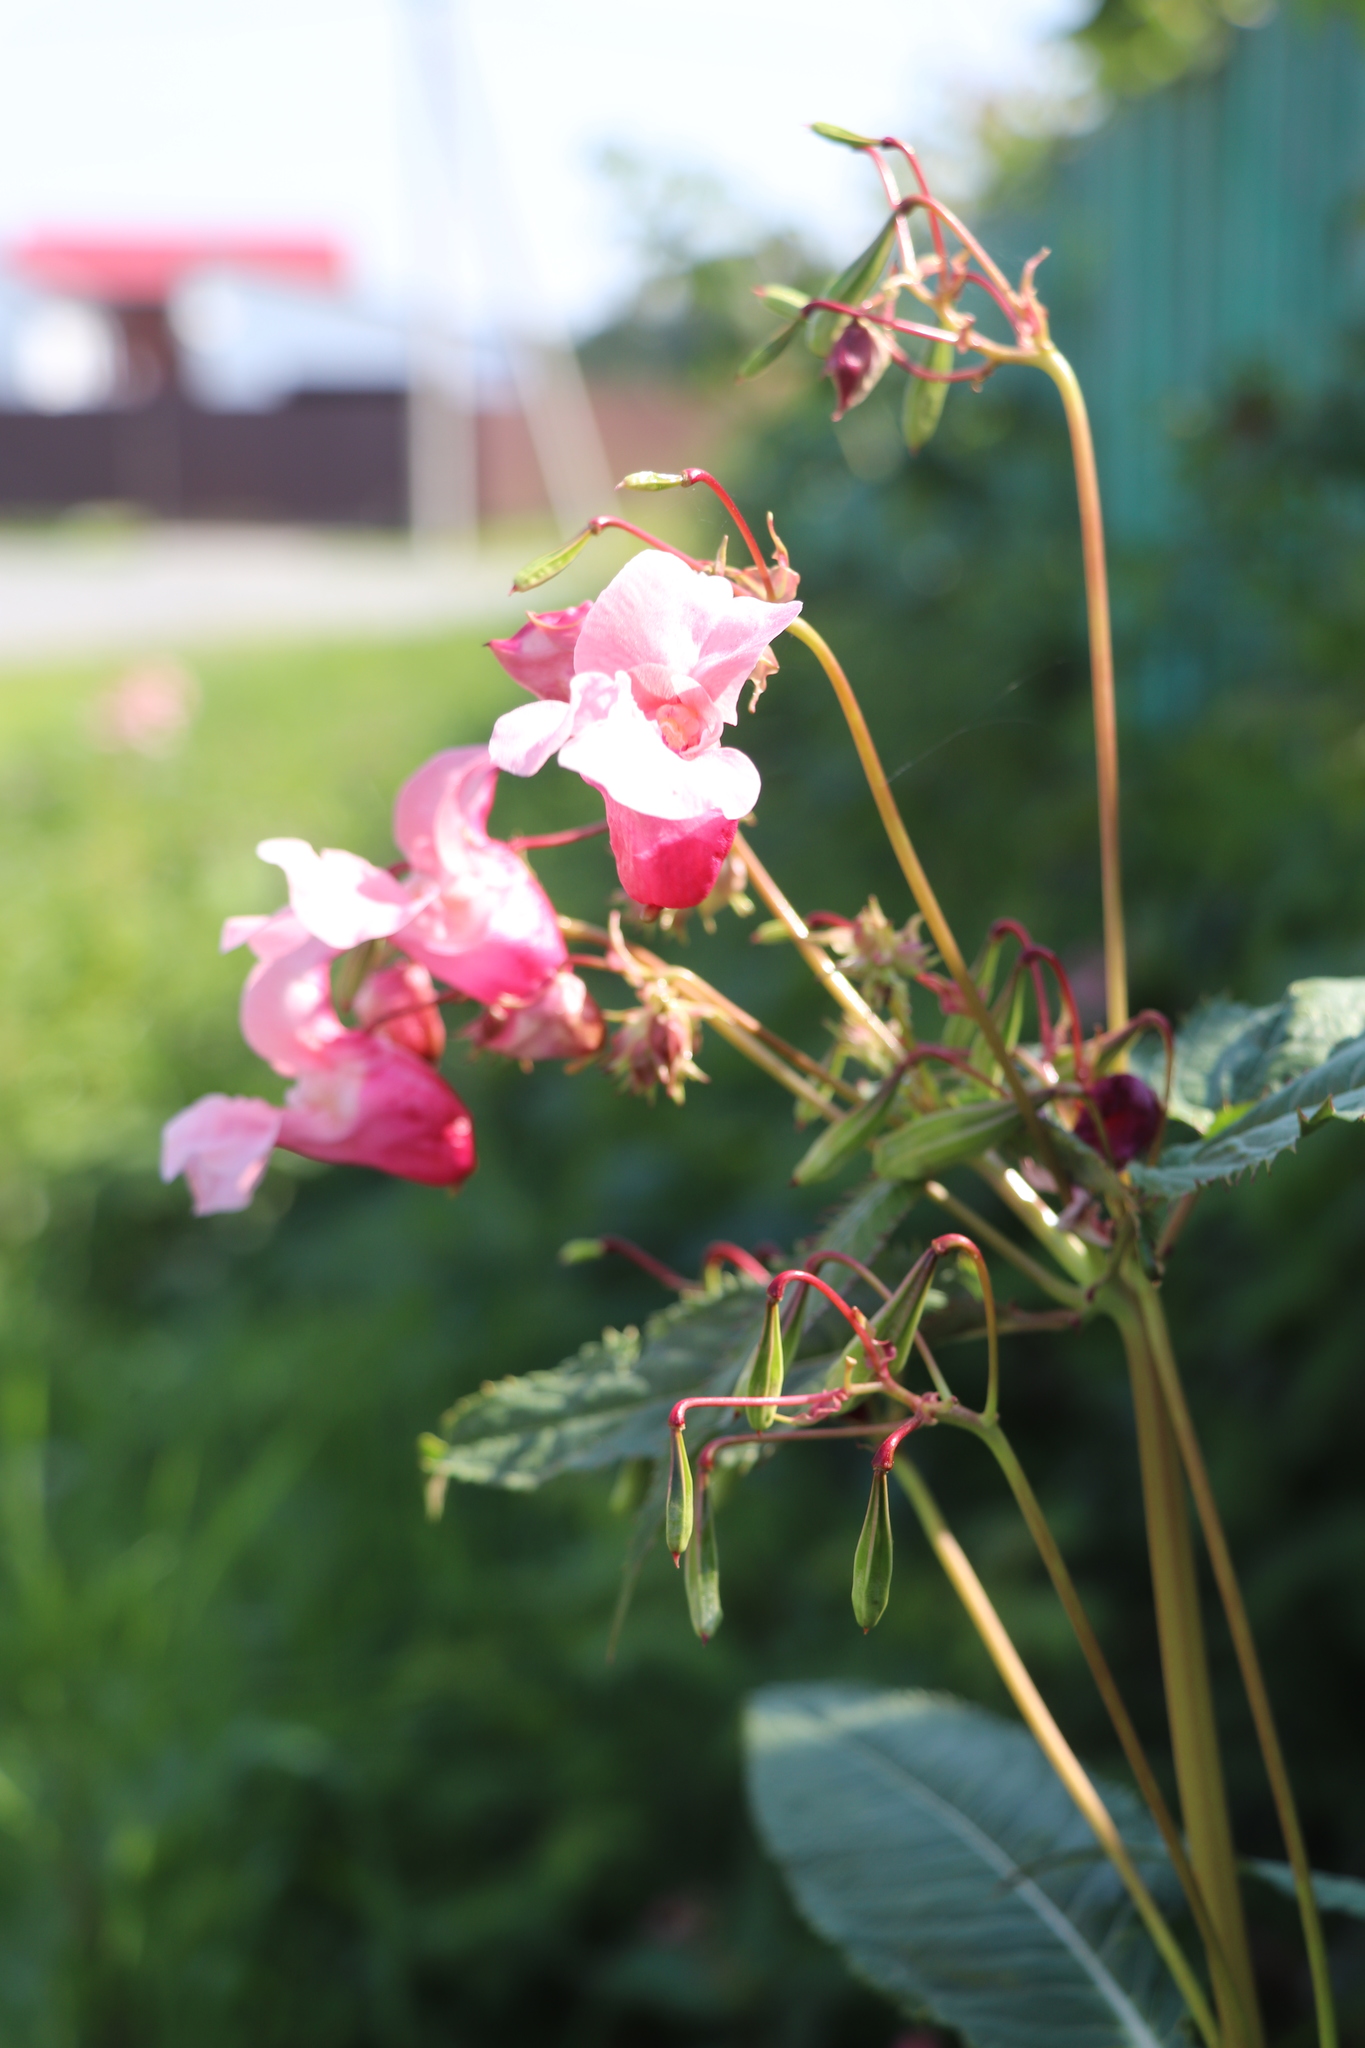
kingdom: Plantae
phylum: Tracheophyta
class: Magnoliopsida
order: Ericales
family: Balsaminaceae
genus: Impatiens
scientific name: Impatiens glandulifera
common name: Himalayan balsam
